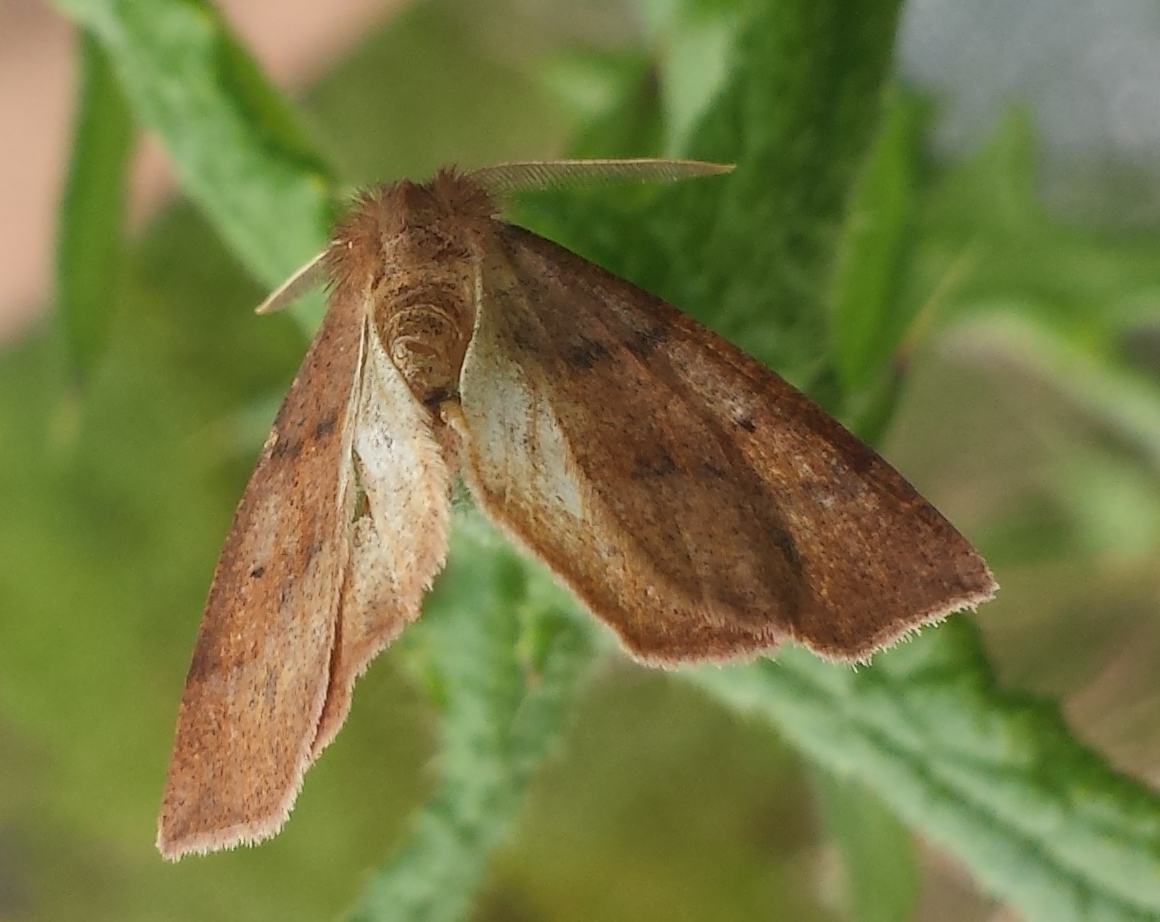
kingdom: Animalia
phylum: Arthropoda
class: Insecta
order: Lepidoptera
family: Geometridae
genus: Metarranthis
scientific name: Metarranthis duaria
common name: Ruddy metarranthis moth
